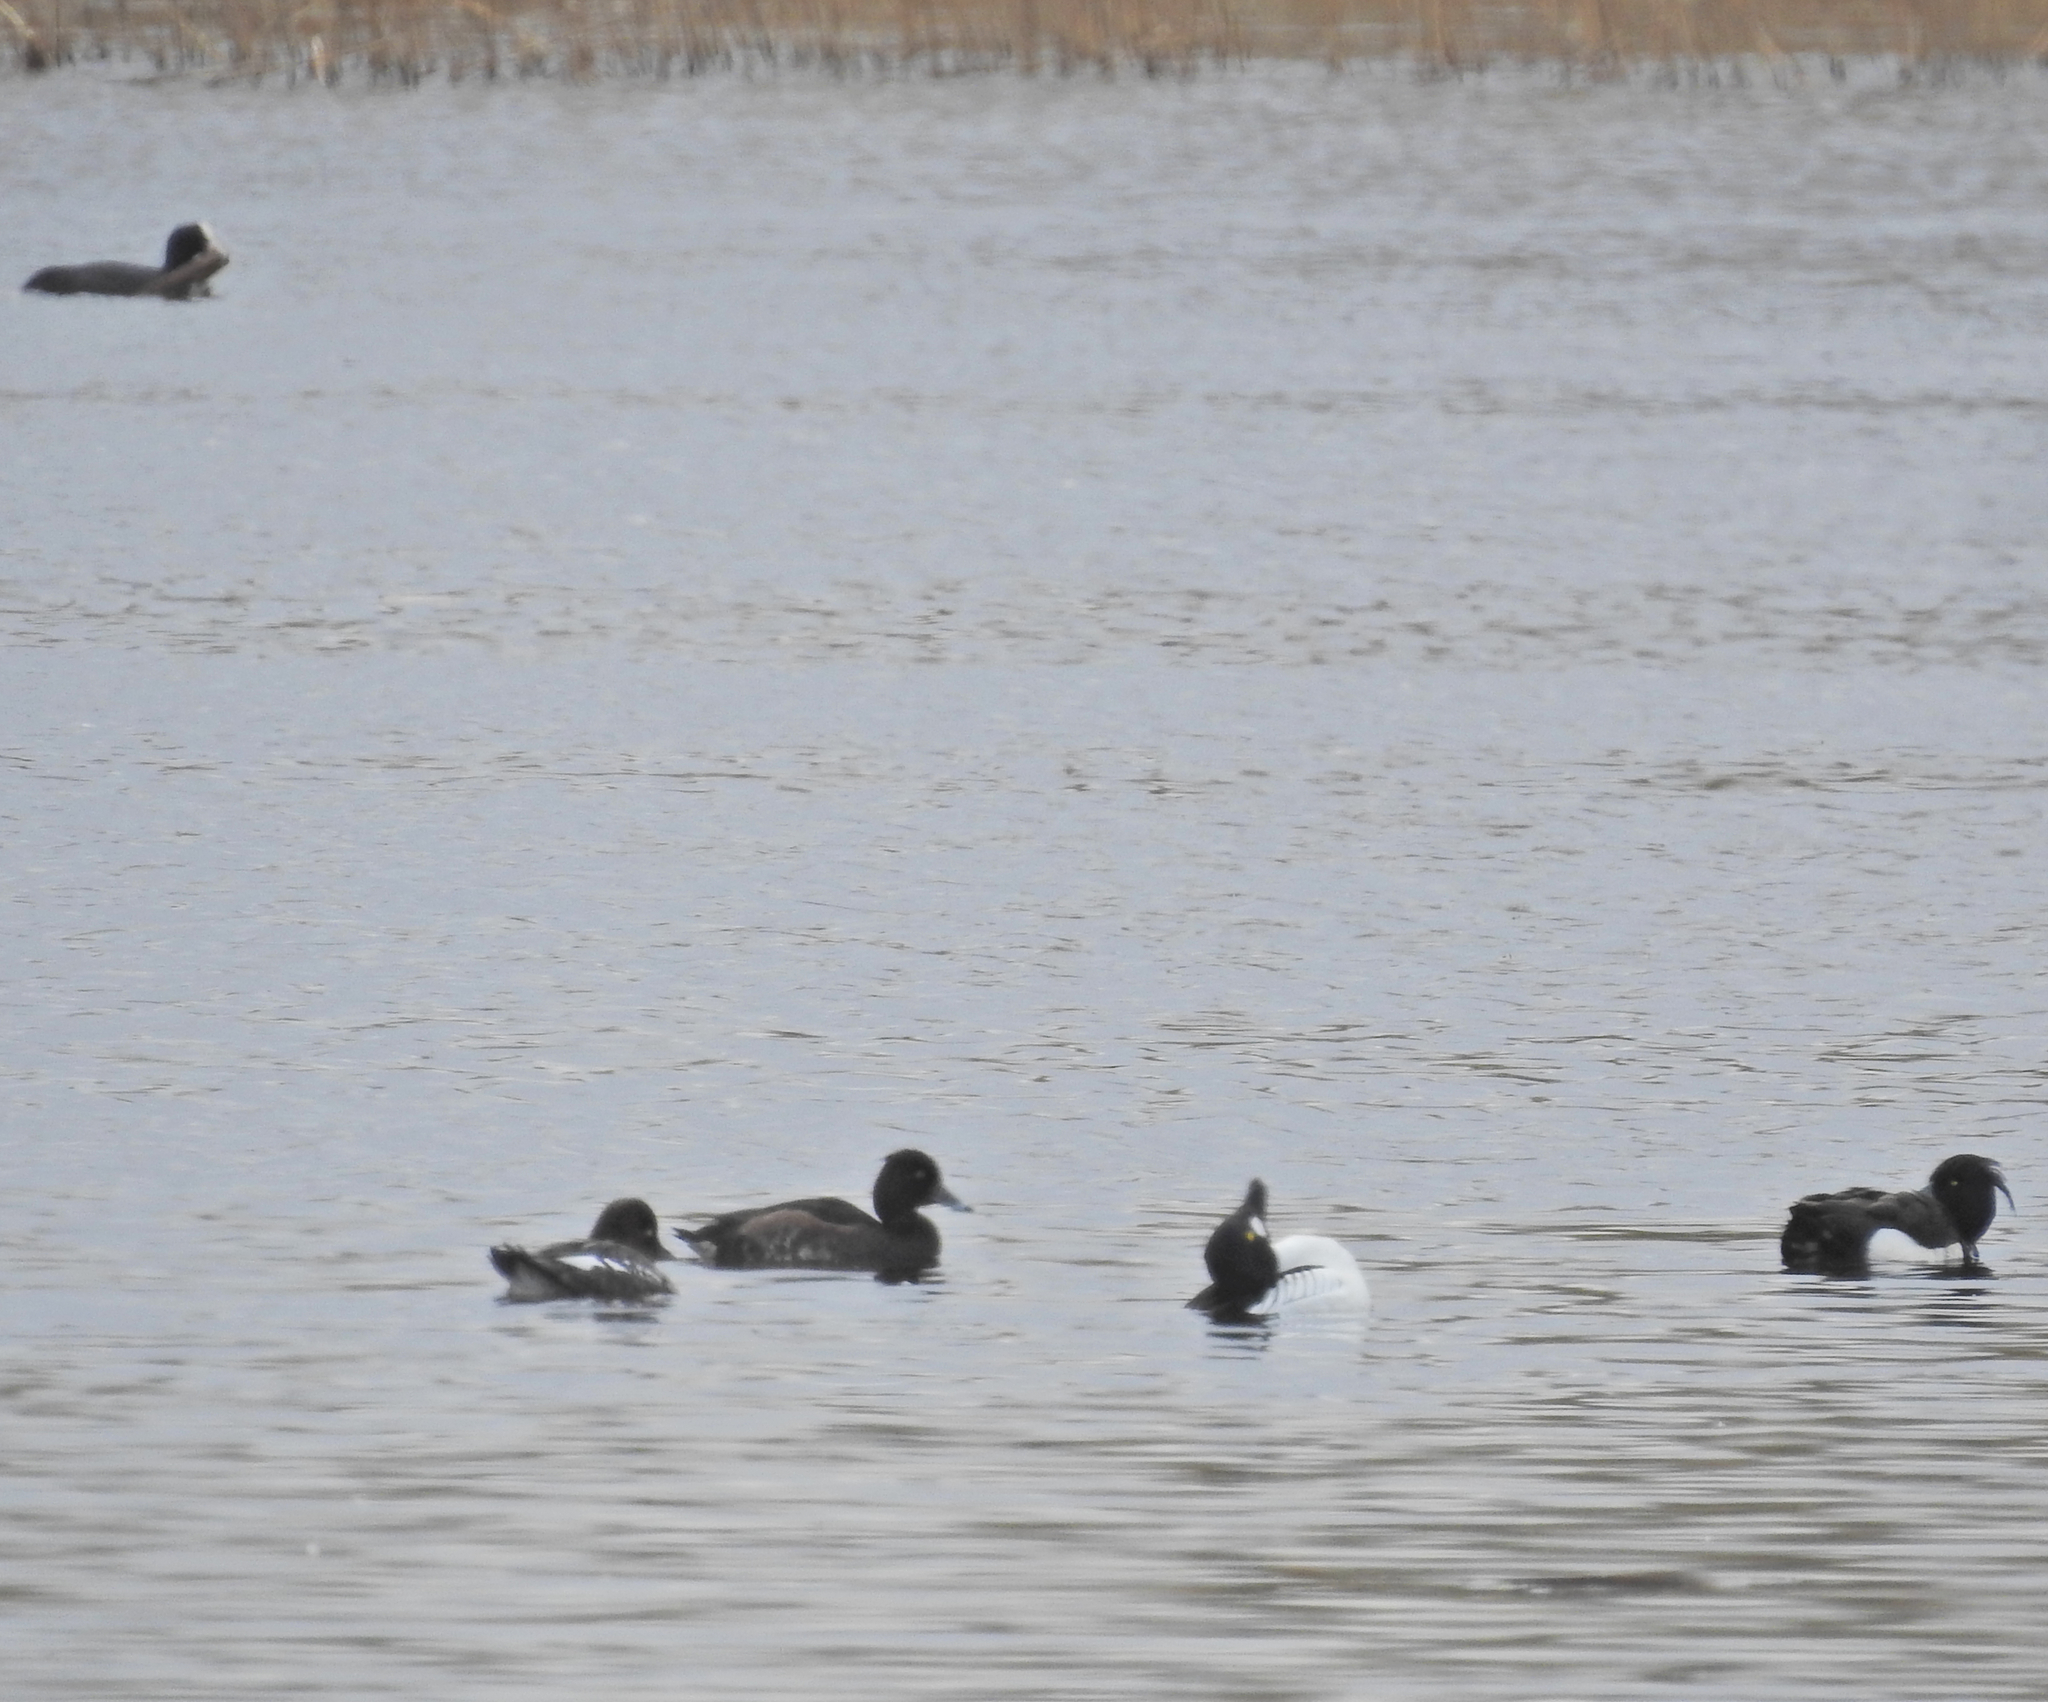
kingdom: Animalia
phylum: Chordata
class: Aves
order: Gruiformes
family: Rallidae
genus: Fulica
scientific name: Fulica atra
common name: Eurasian coot
